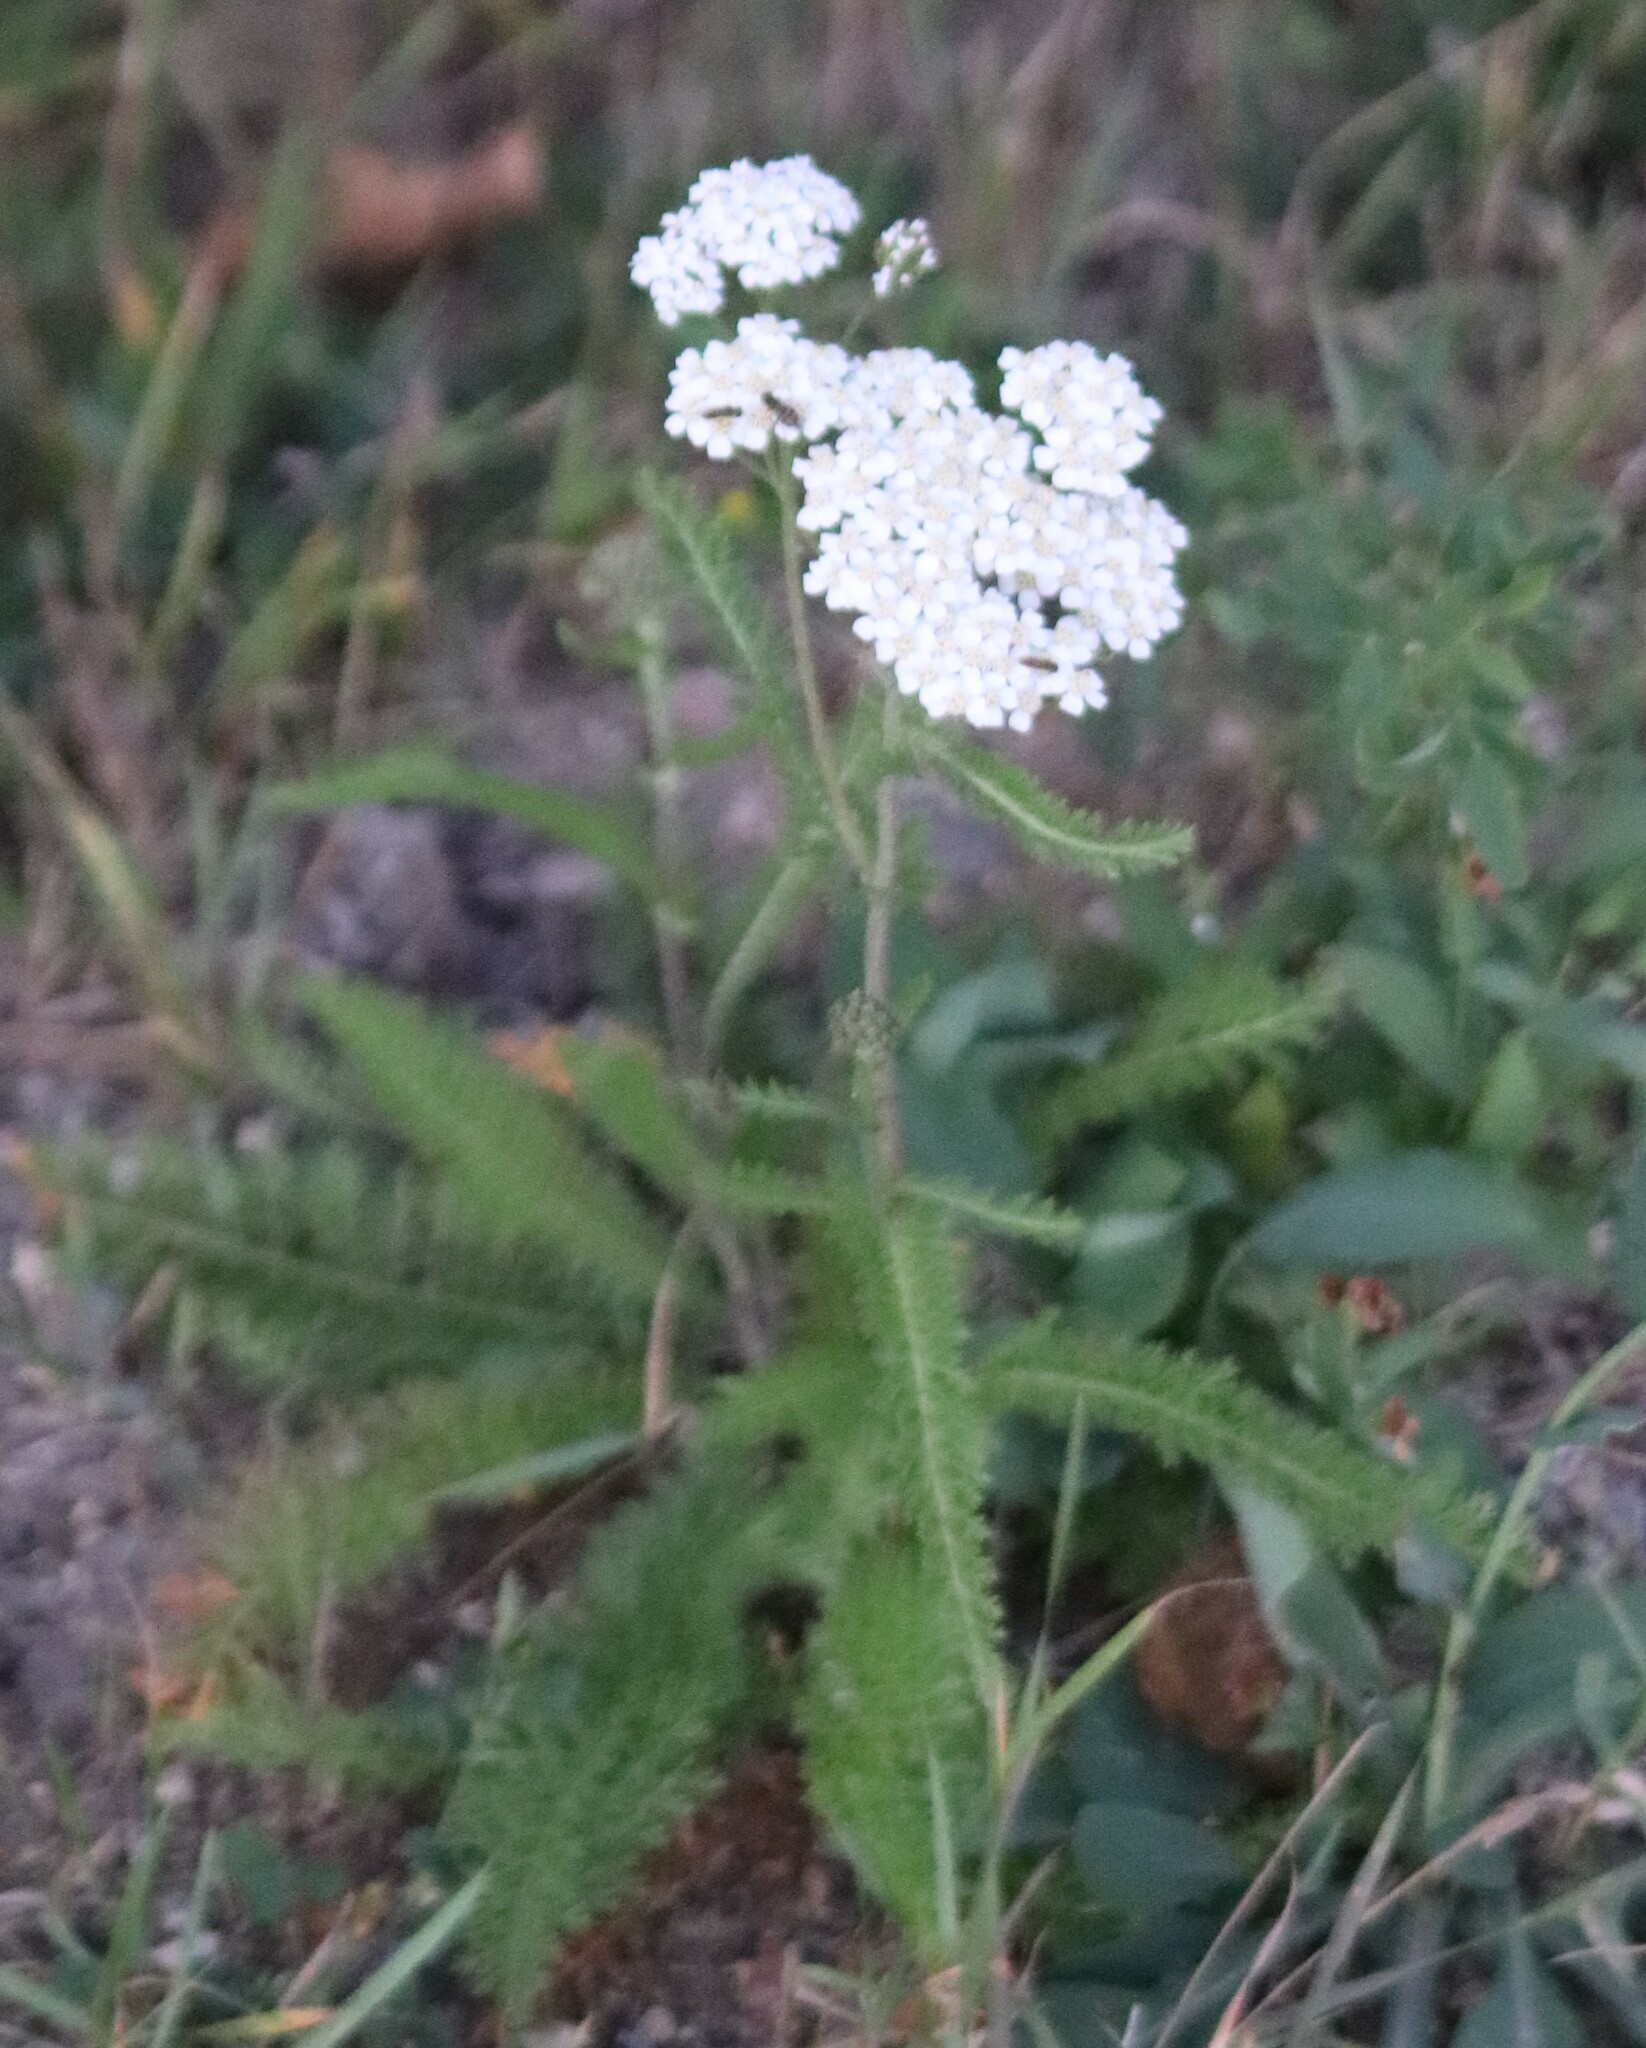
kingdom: Plantae
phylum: Tracheophyta
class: Magnoliopsida
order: Asterales
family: Asteraceae
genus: Achillea
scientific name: Achillea millefolium
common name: Yarrow
